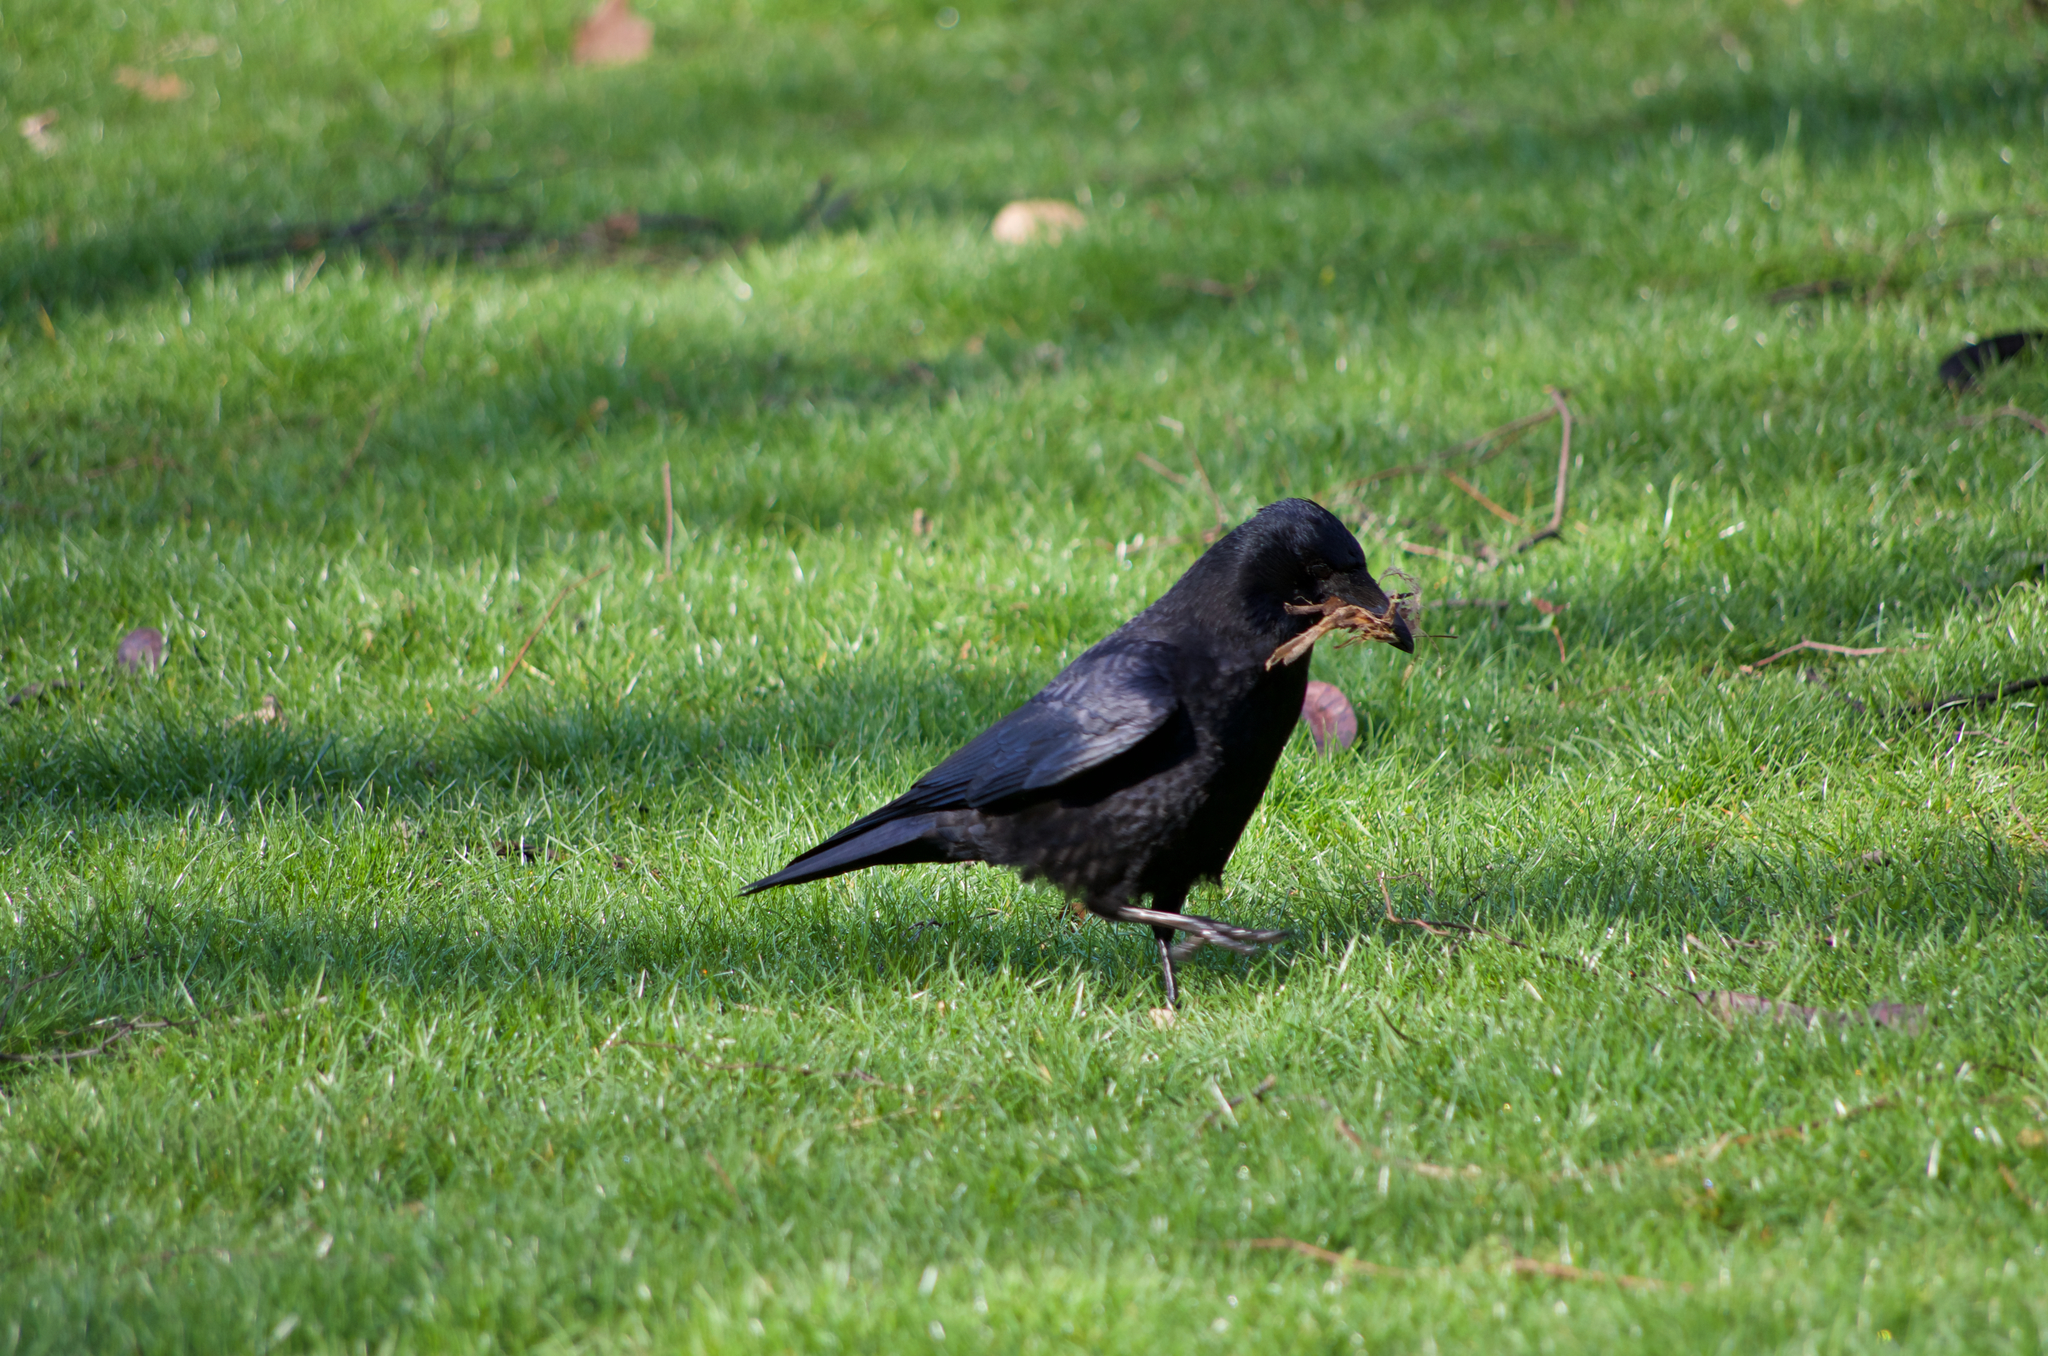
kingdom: Animalia
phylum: Chordata
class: Aves
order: Passeriformes
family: Corvidae
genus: Corvus
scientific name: Corvus corone
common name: Carrion crow
